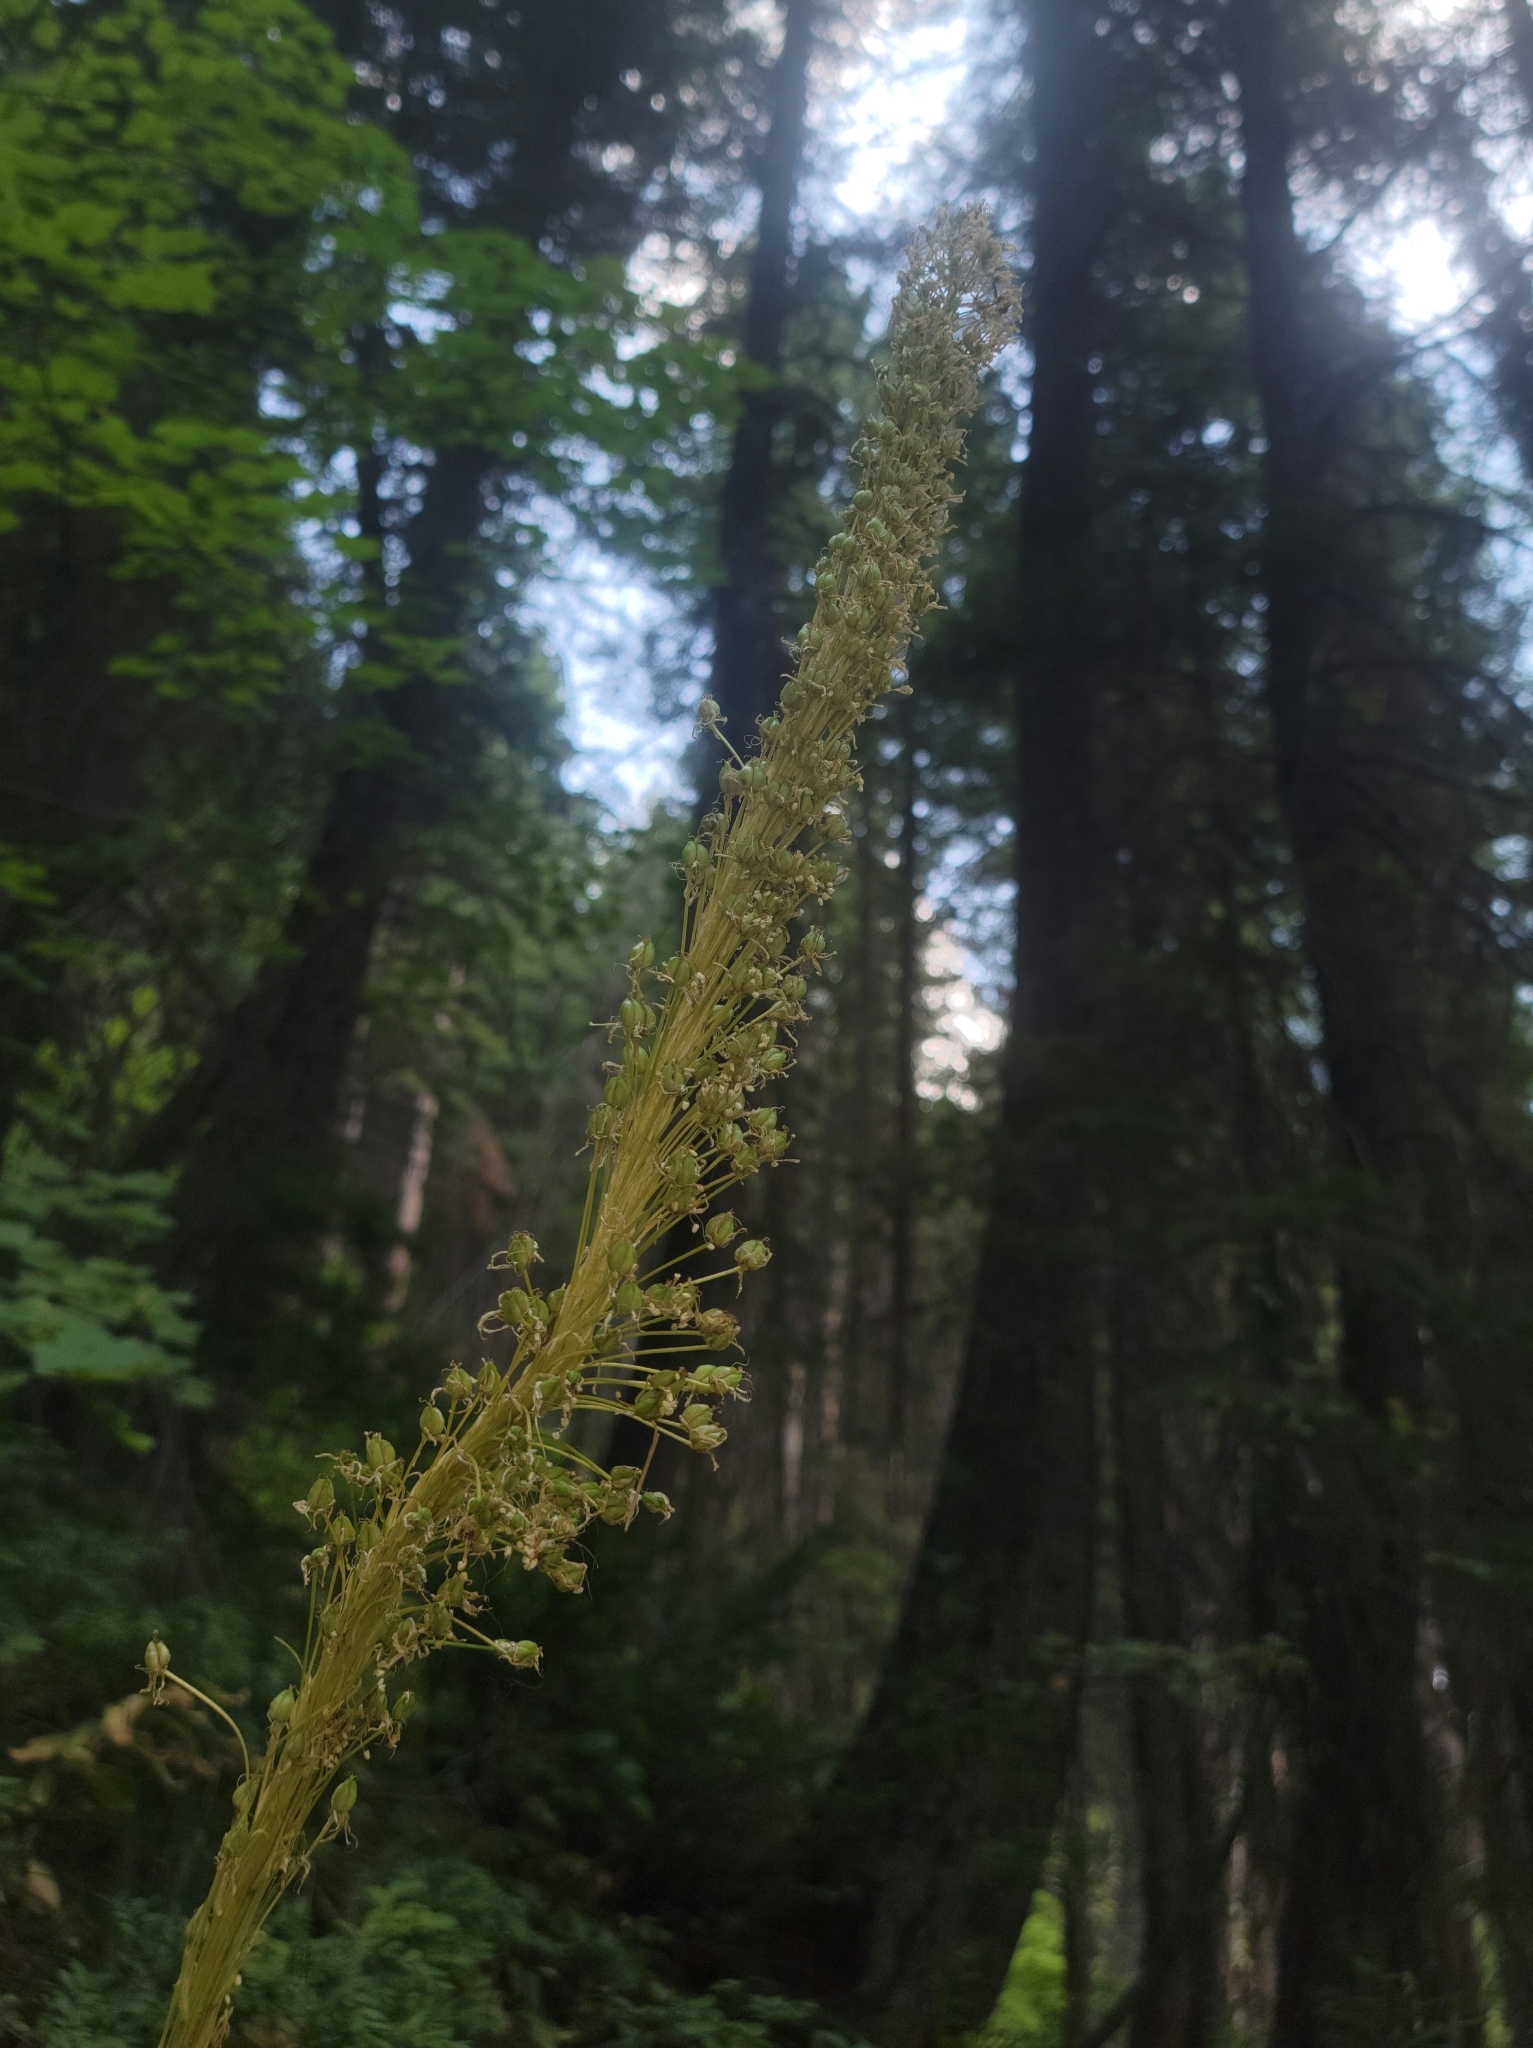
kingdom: Plantae
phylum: Tracheophyta
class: Liliopsida
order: Liliales
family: Melanthiaceae
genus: Xerophyllum
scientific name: Xerophyllum tenax
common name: Bear-grass
